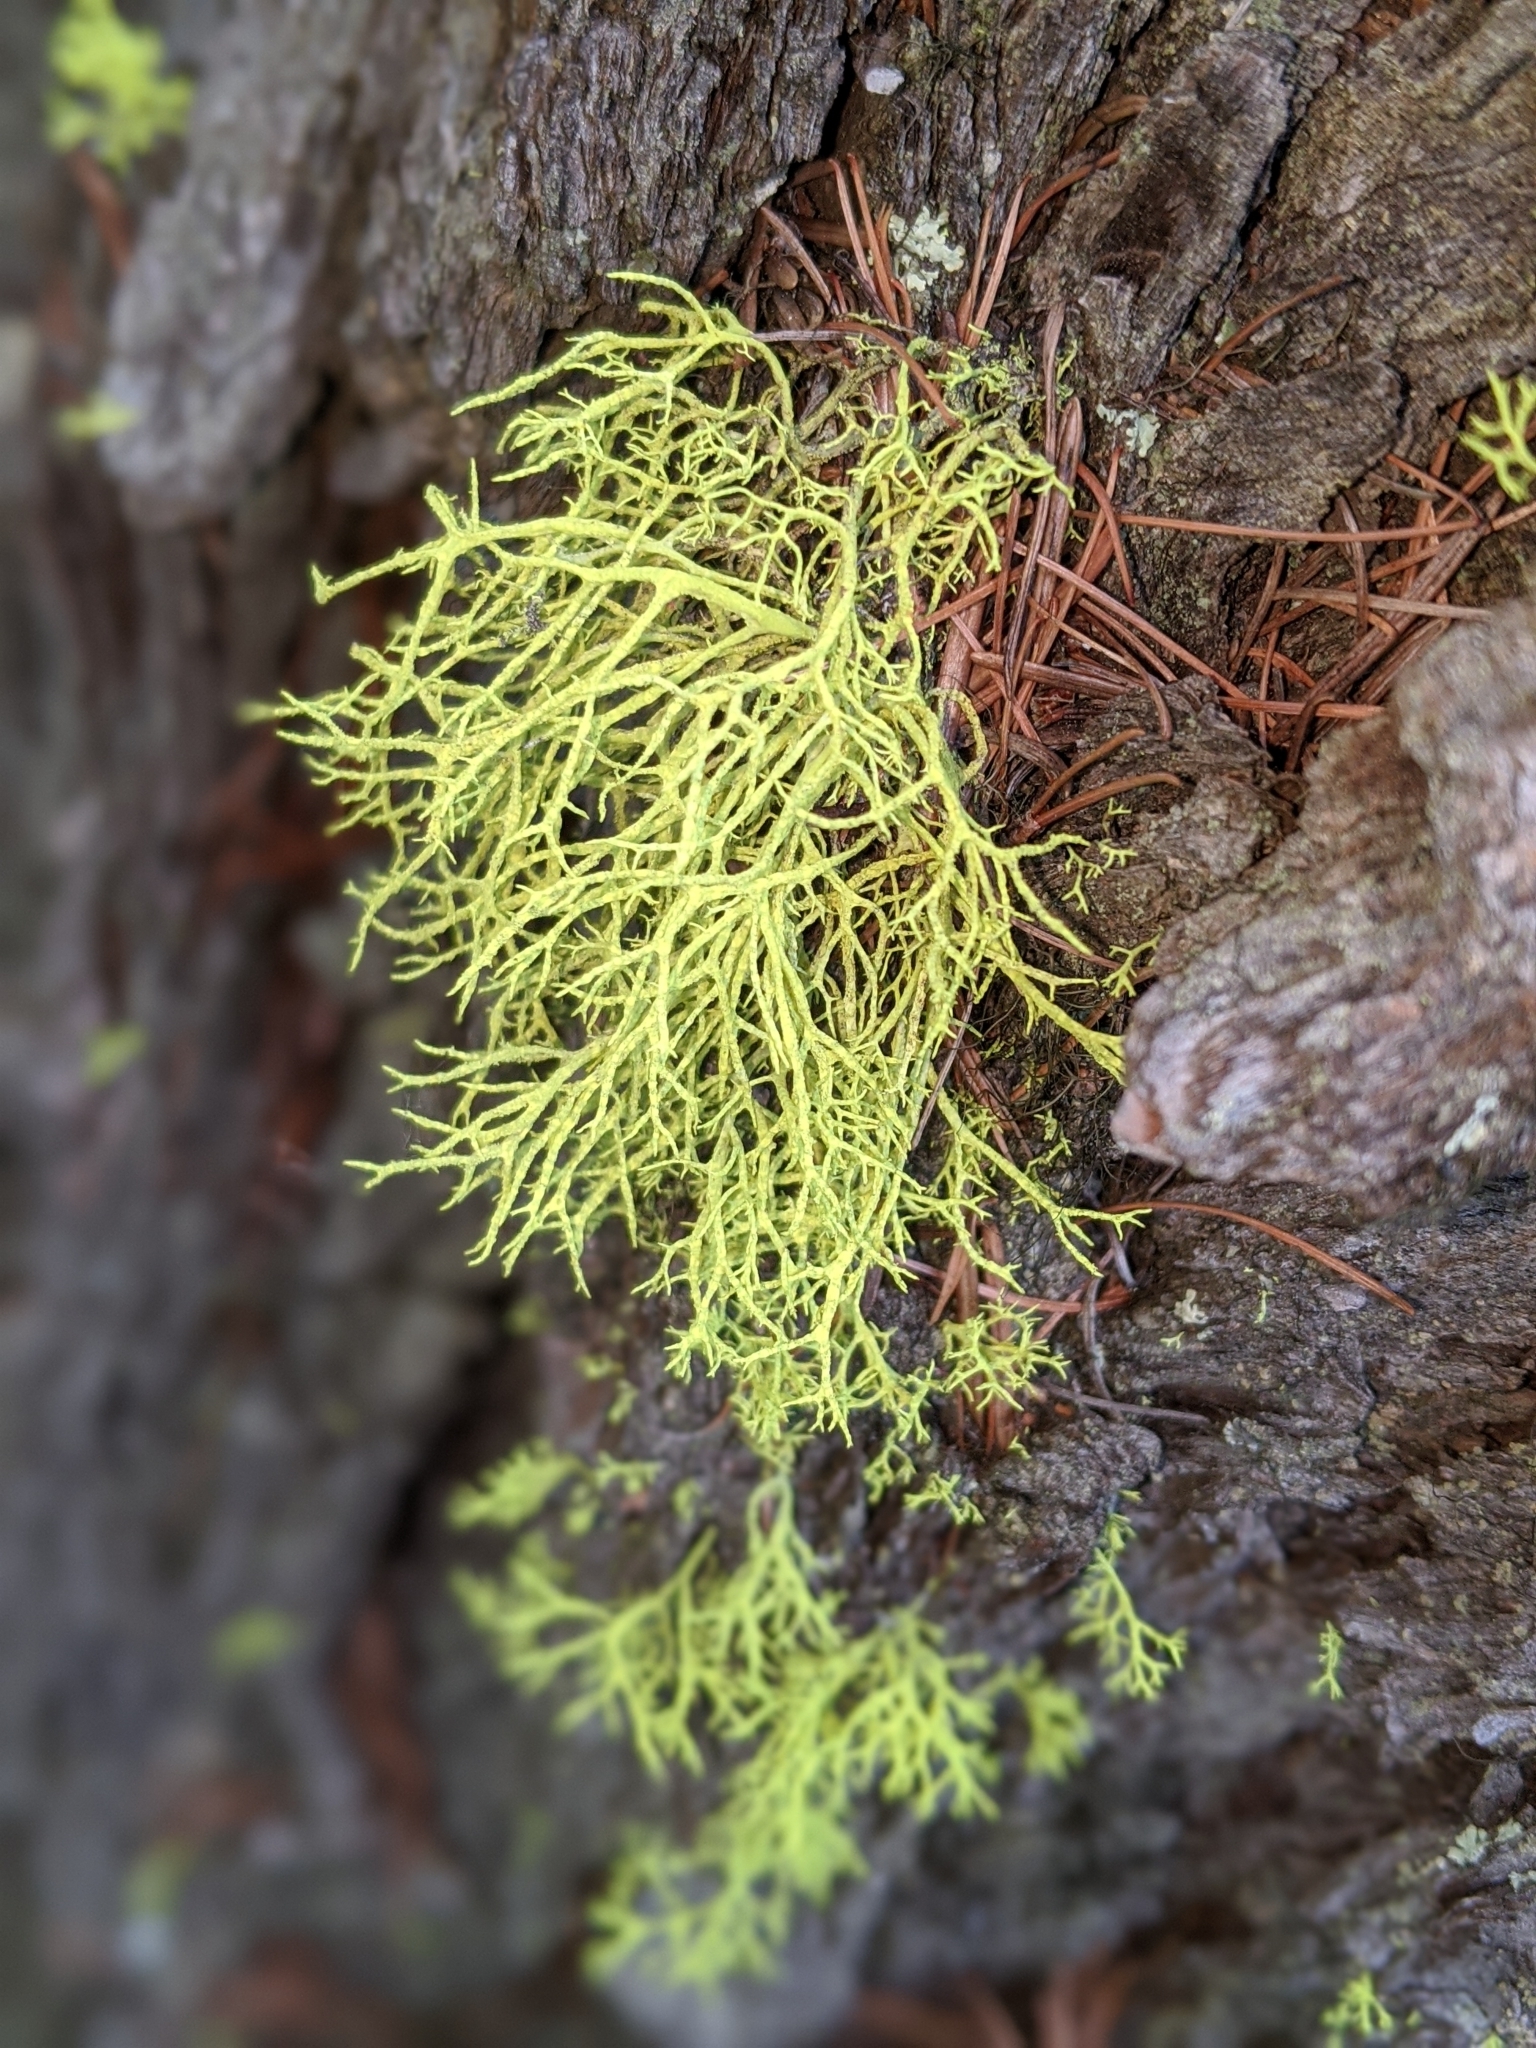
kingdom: Fungi
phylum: Ascomycota
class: Lecanoromycetes
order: Lecanorales
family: Parmeliaceae
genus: Letharia
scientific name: Letharia vulpina
